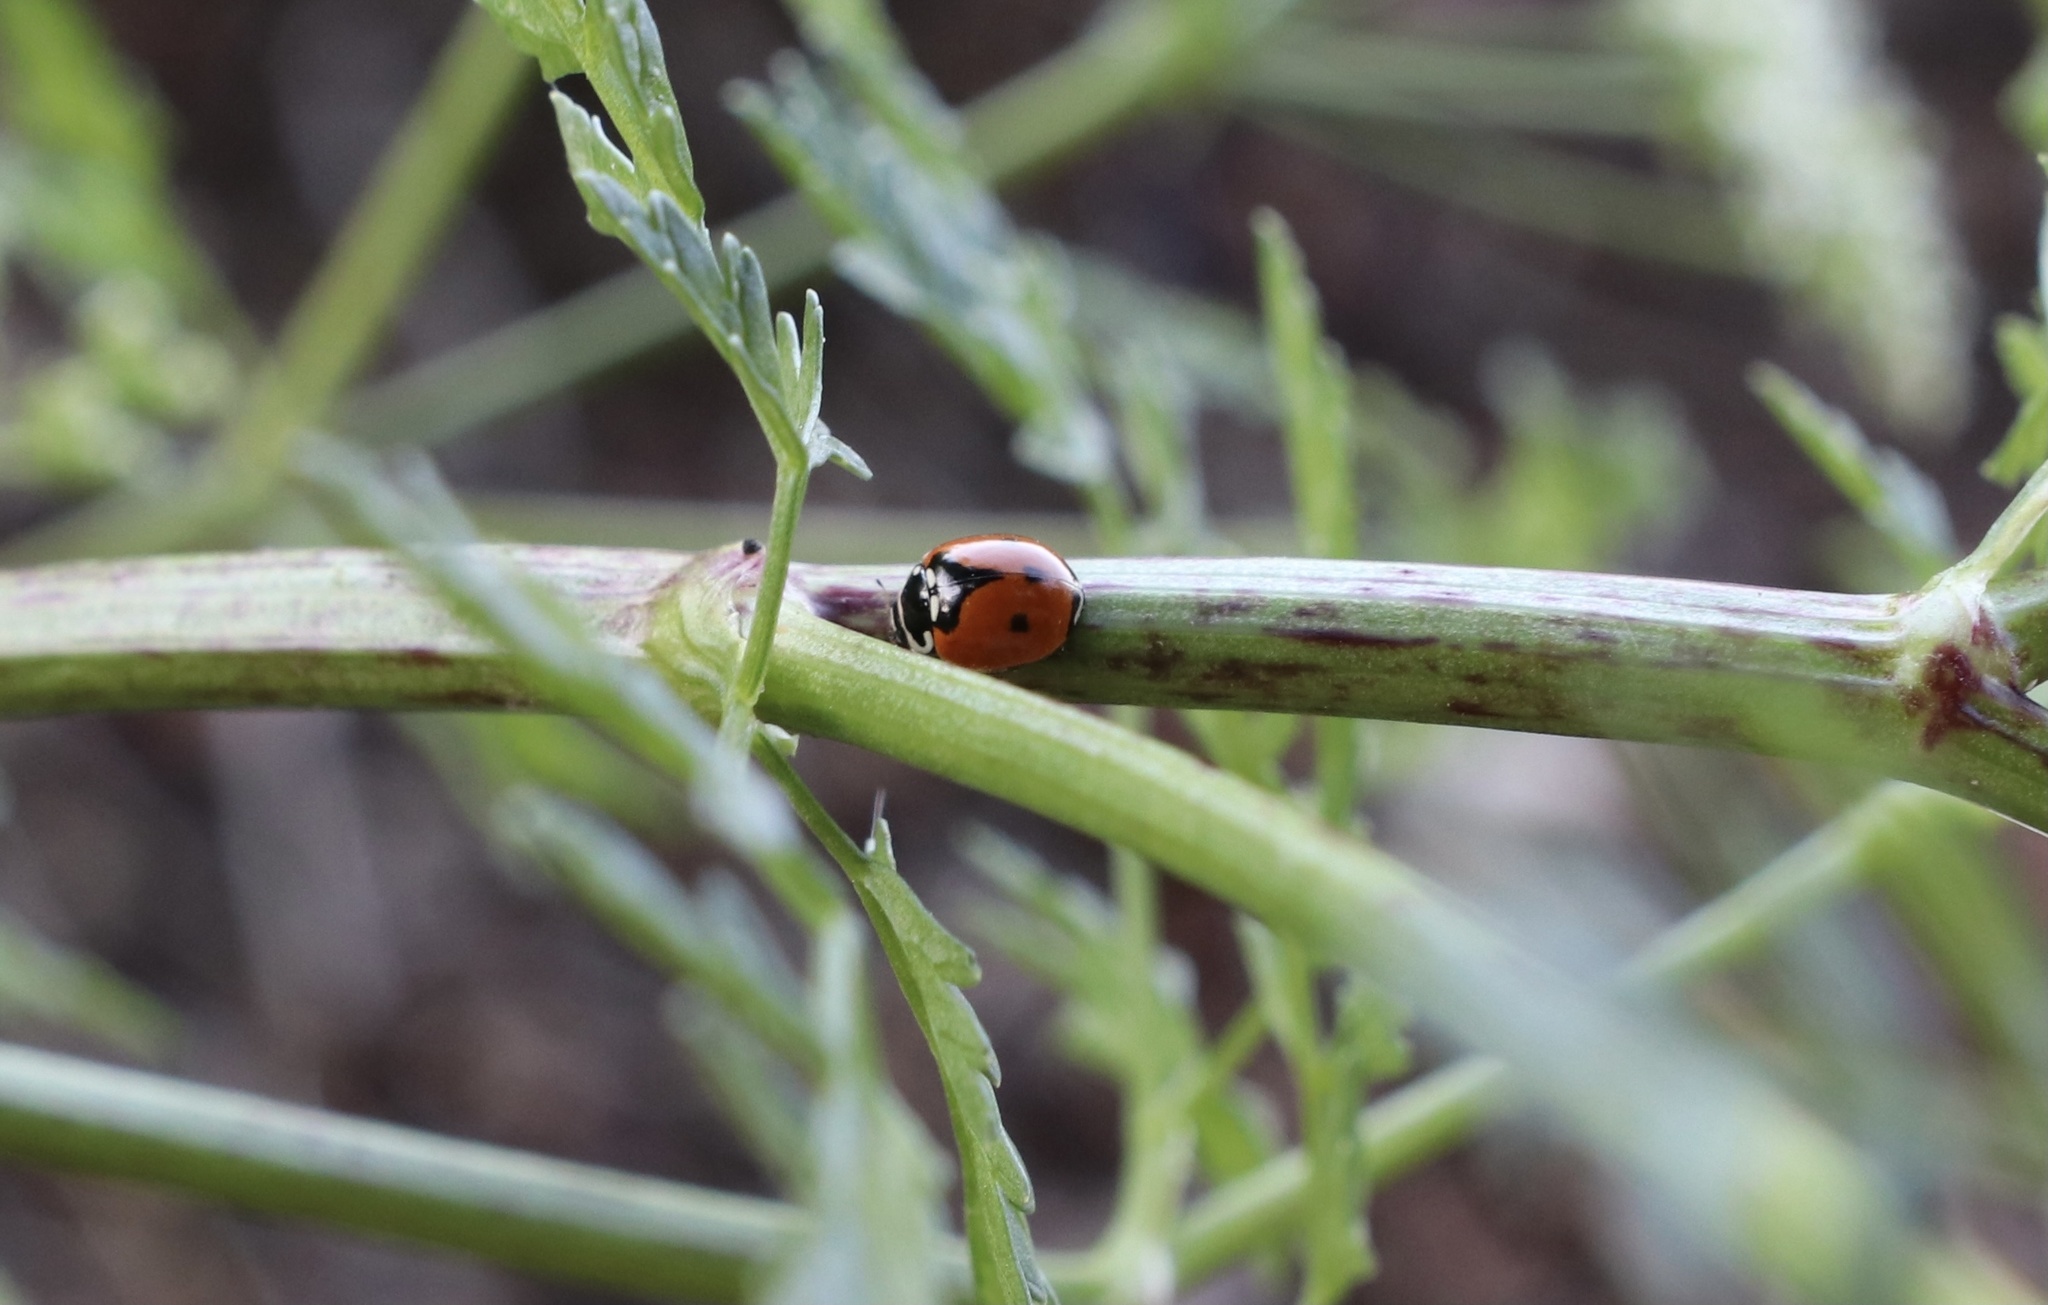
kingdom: Animalia
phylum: Arthropoda
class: Insecta
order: Coleoptera
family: Coccinellidae
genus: Adalia
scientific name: Adalia deficiens
